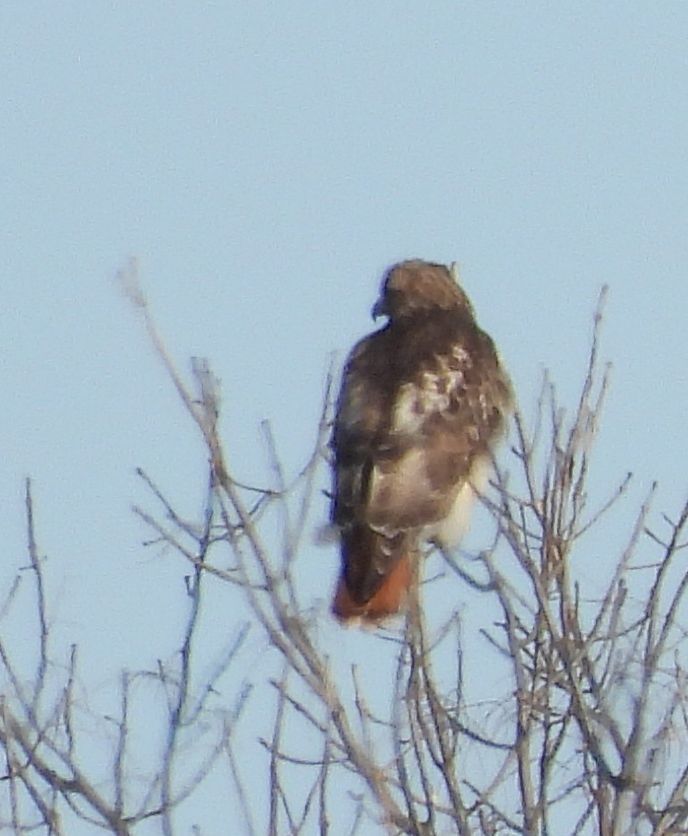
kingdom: Animalia
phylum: Chordata
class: Aves
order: Accipitriformes
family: Accipitridae
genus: Buteo
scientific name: Buteo jamaicensis
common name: Red-tailed hawk
